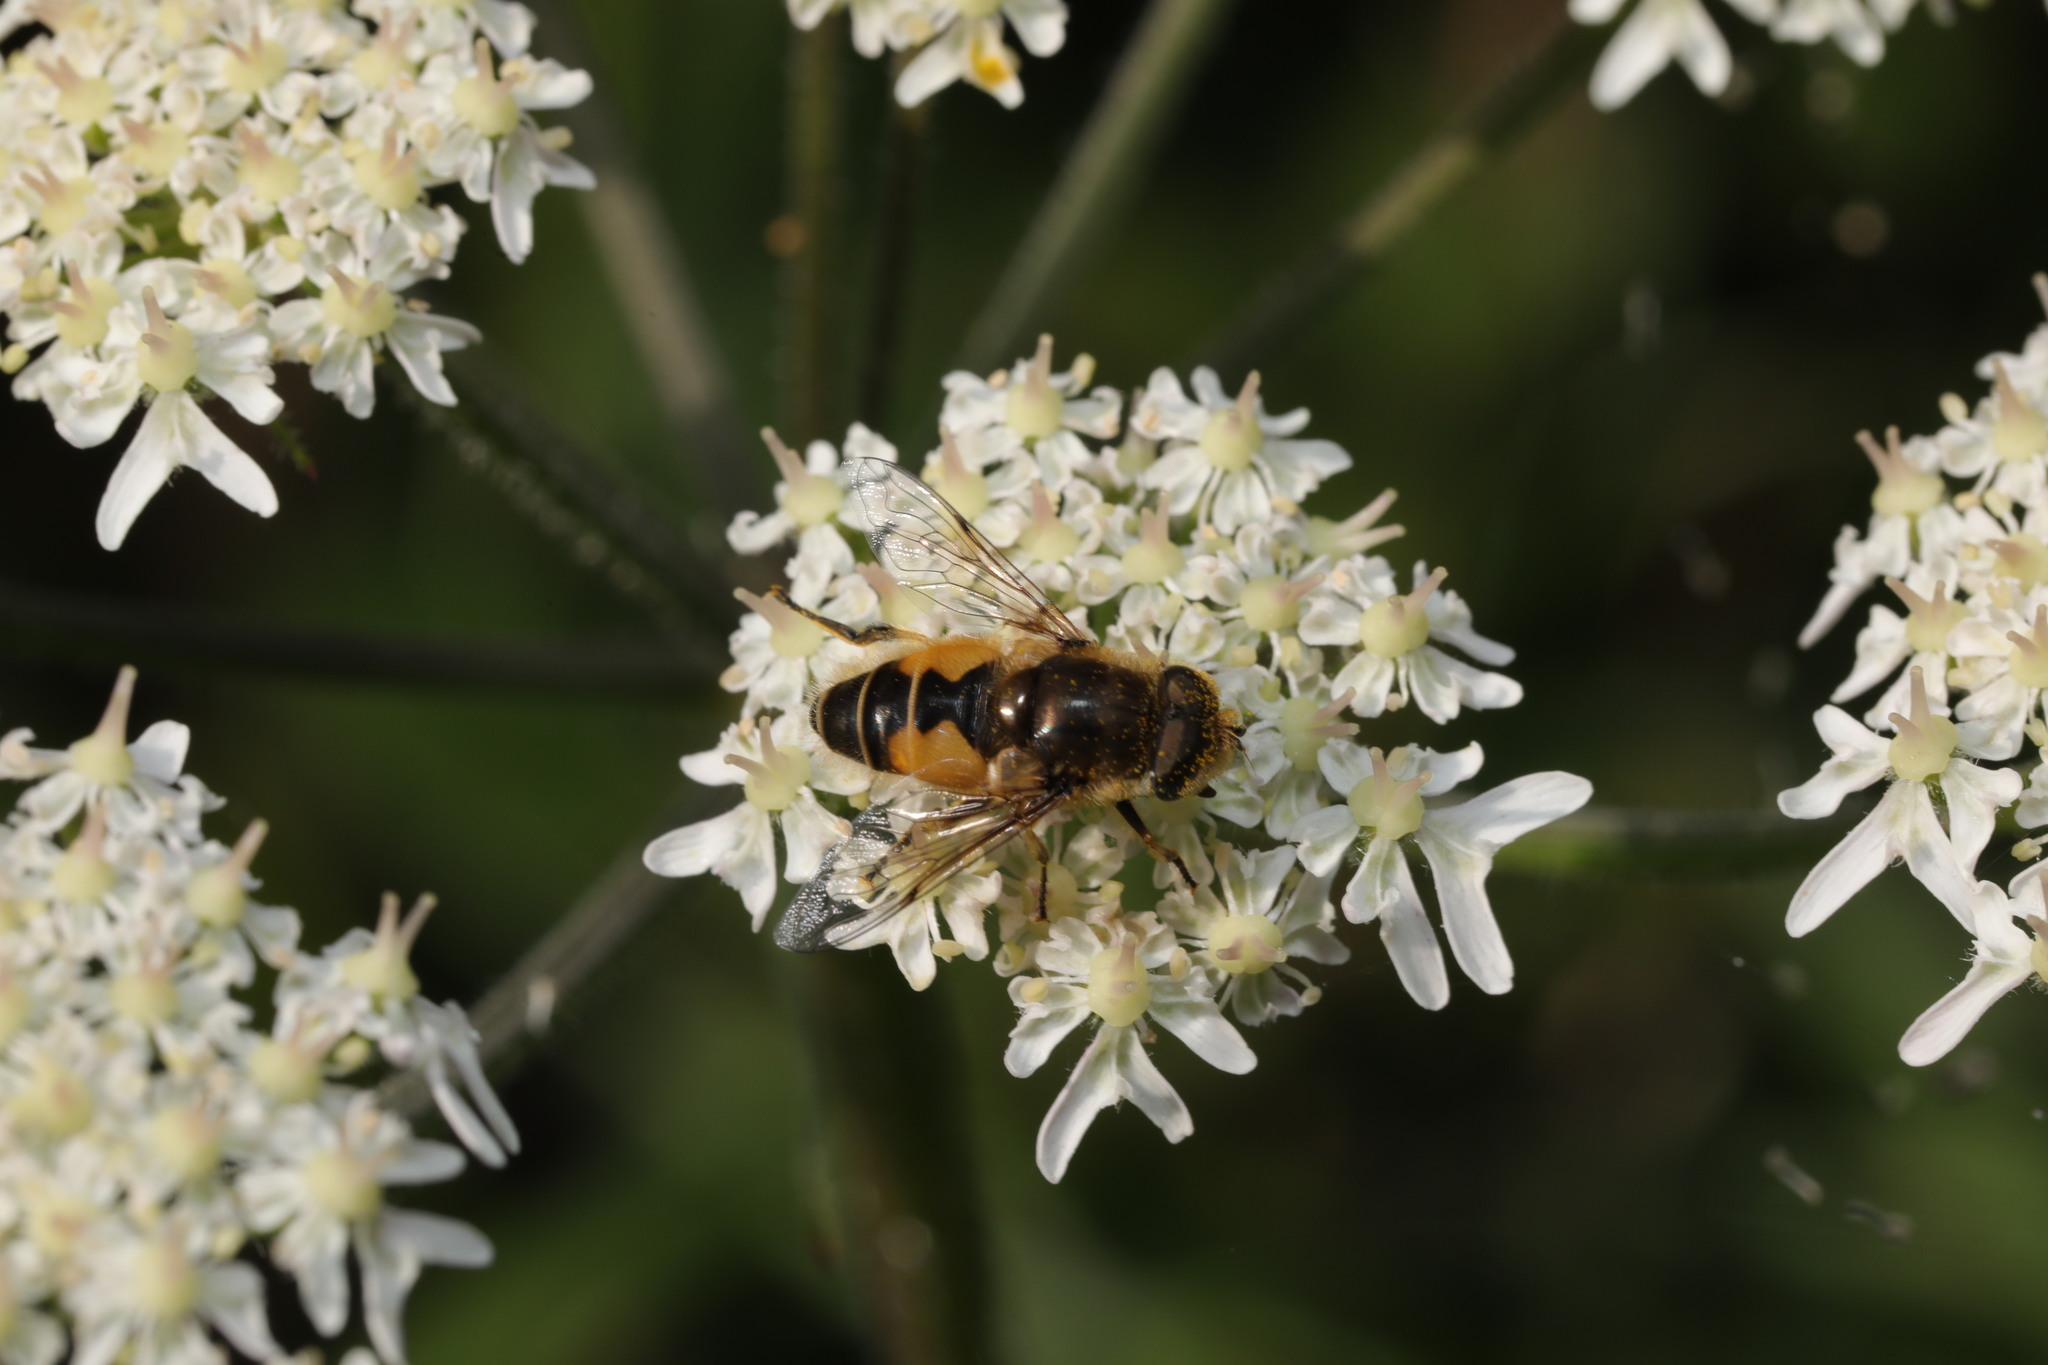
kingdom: Animalia
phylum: Arthropoda
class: Insecta
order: Diptera
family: Syrphidae
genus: Eristalis
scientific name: Eristalis arbustorum
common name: Hover fly
